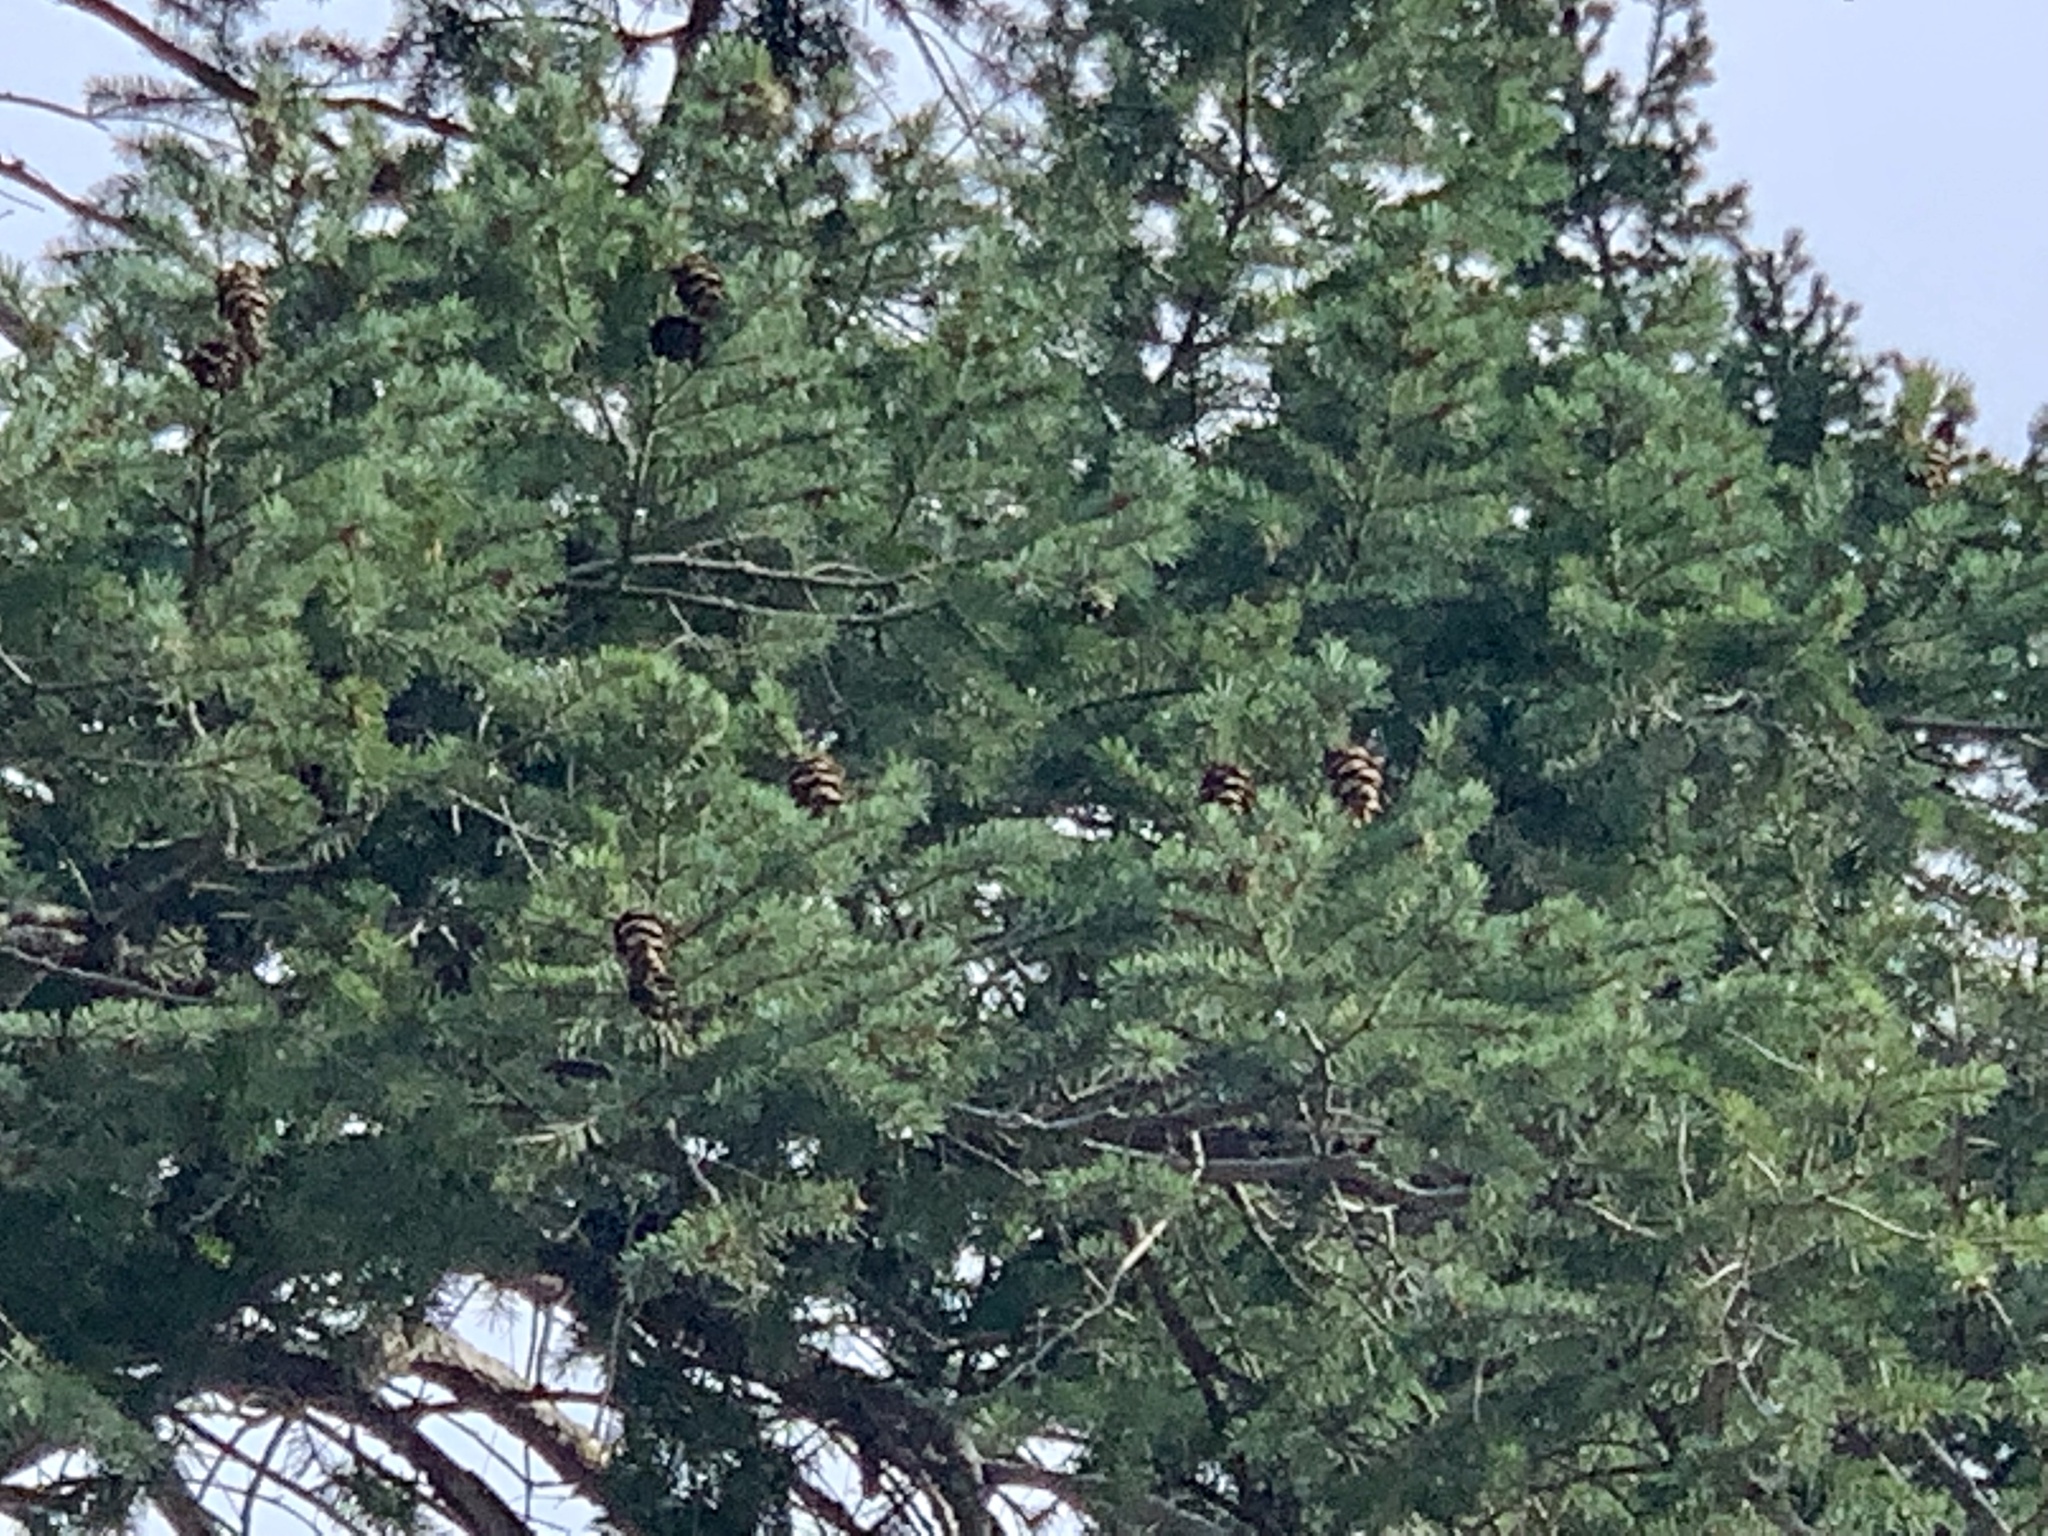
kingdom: Plantae
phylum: Tracheophyta
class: Pinopsida
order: Pinales
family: Pinaceae
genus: Pseudotsuga
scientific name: Pseudotsuga menziesii
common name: Douglas fir
